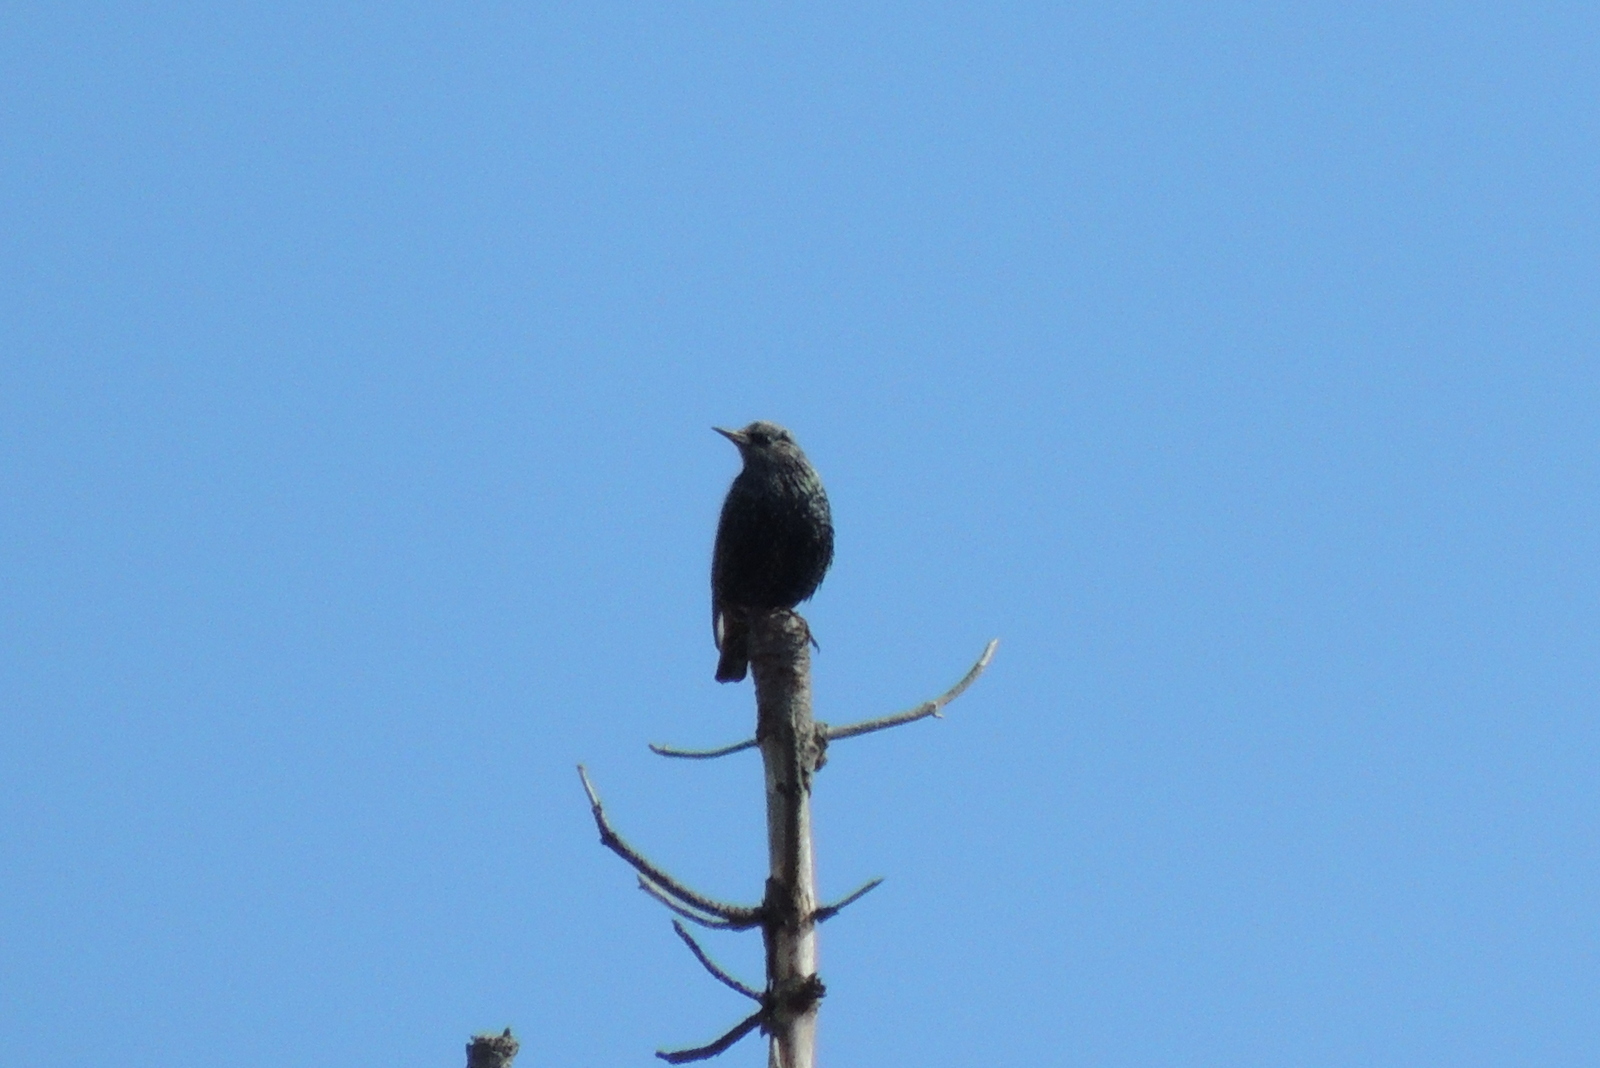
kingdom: Animalia
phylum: Chordata
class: Aves
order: Passeriformes
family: Sturnidae
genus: Sturnus
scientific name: Sturnus vulgaris
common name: Common starling
